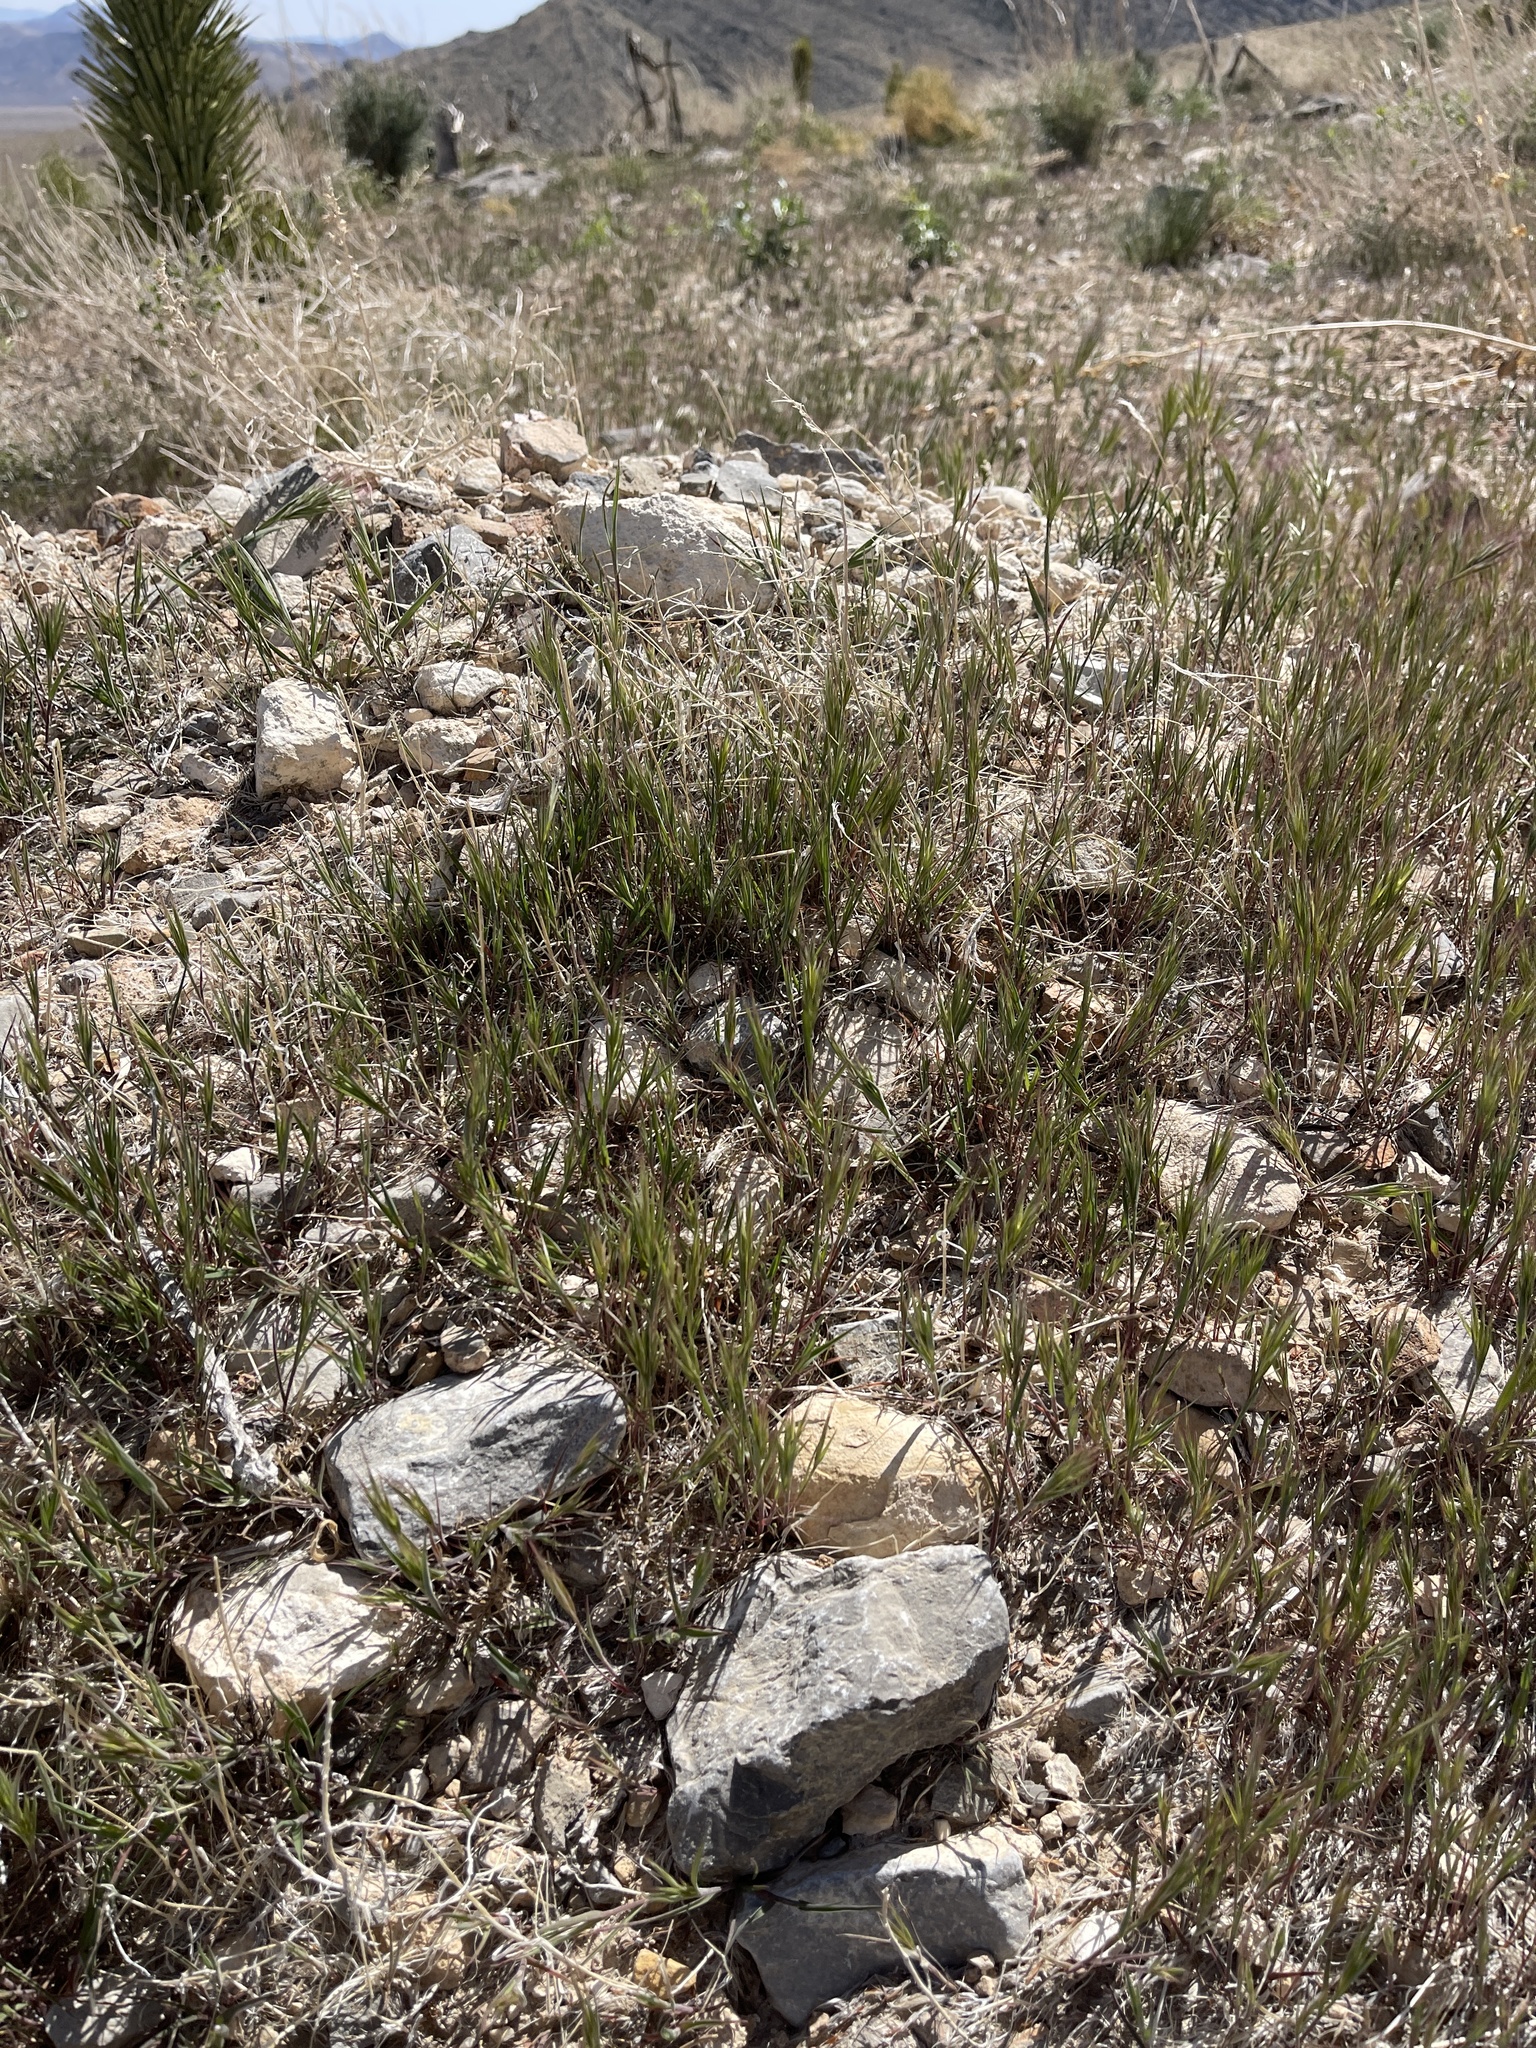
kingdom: Plantae
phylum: Tracheophyta
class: Liliopsida
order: Poales
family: Poaceae
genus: Bromus
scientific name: Bromus rubens
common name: Red brome
